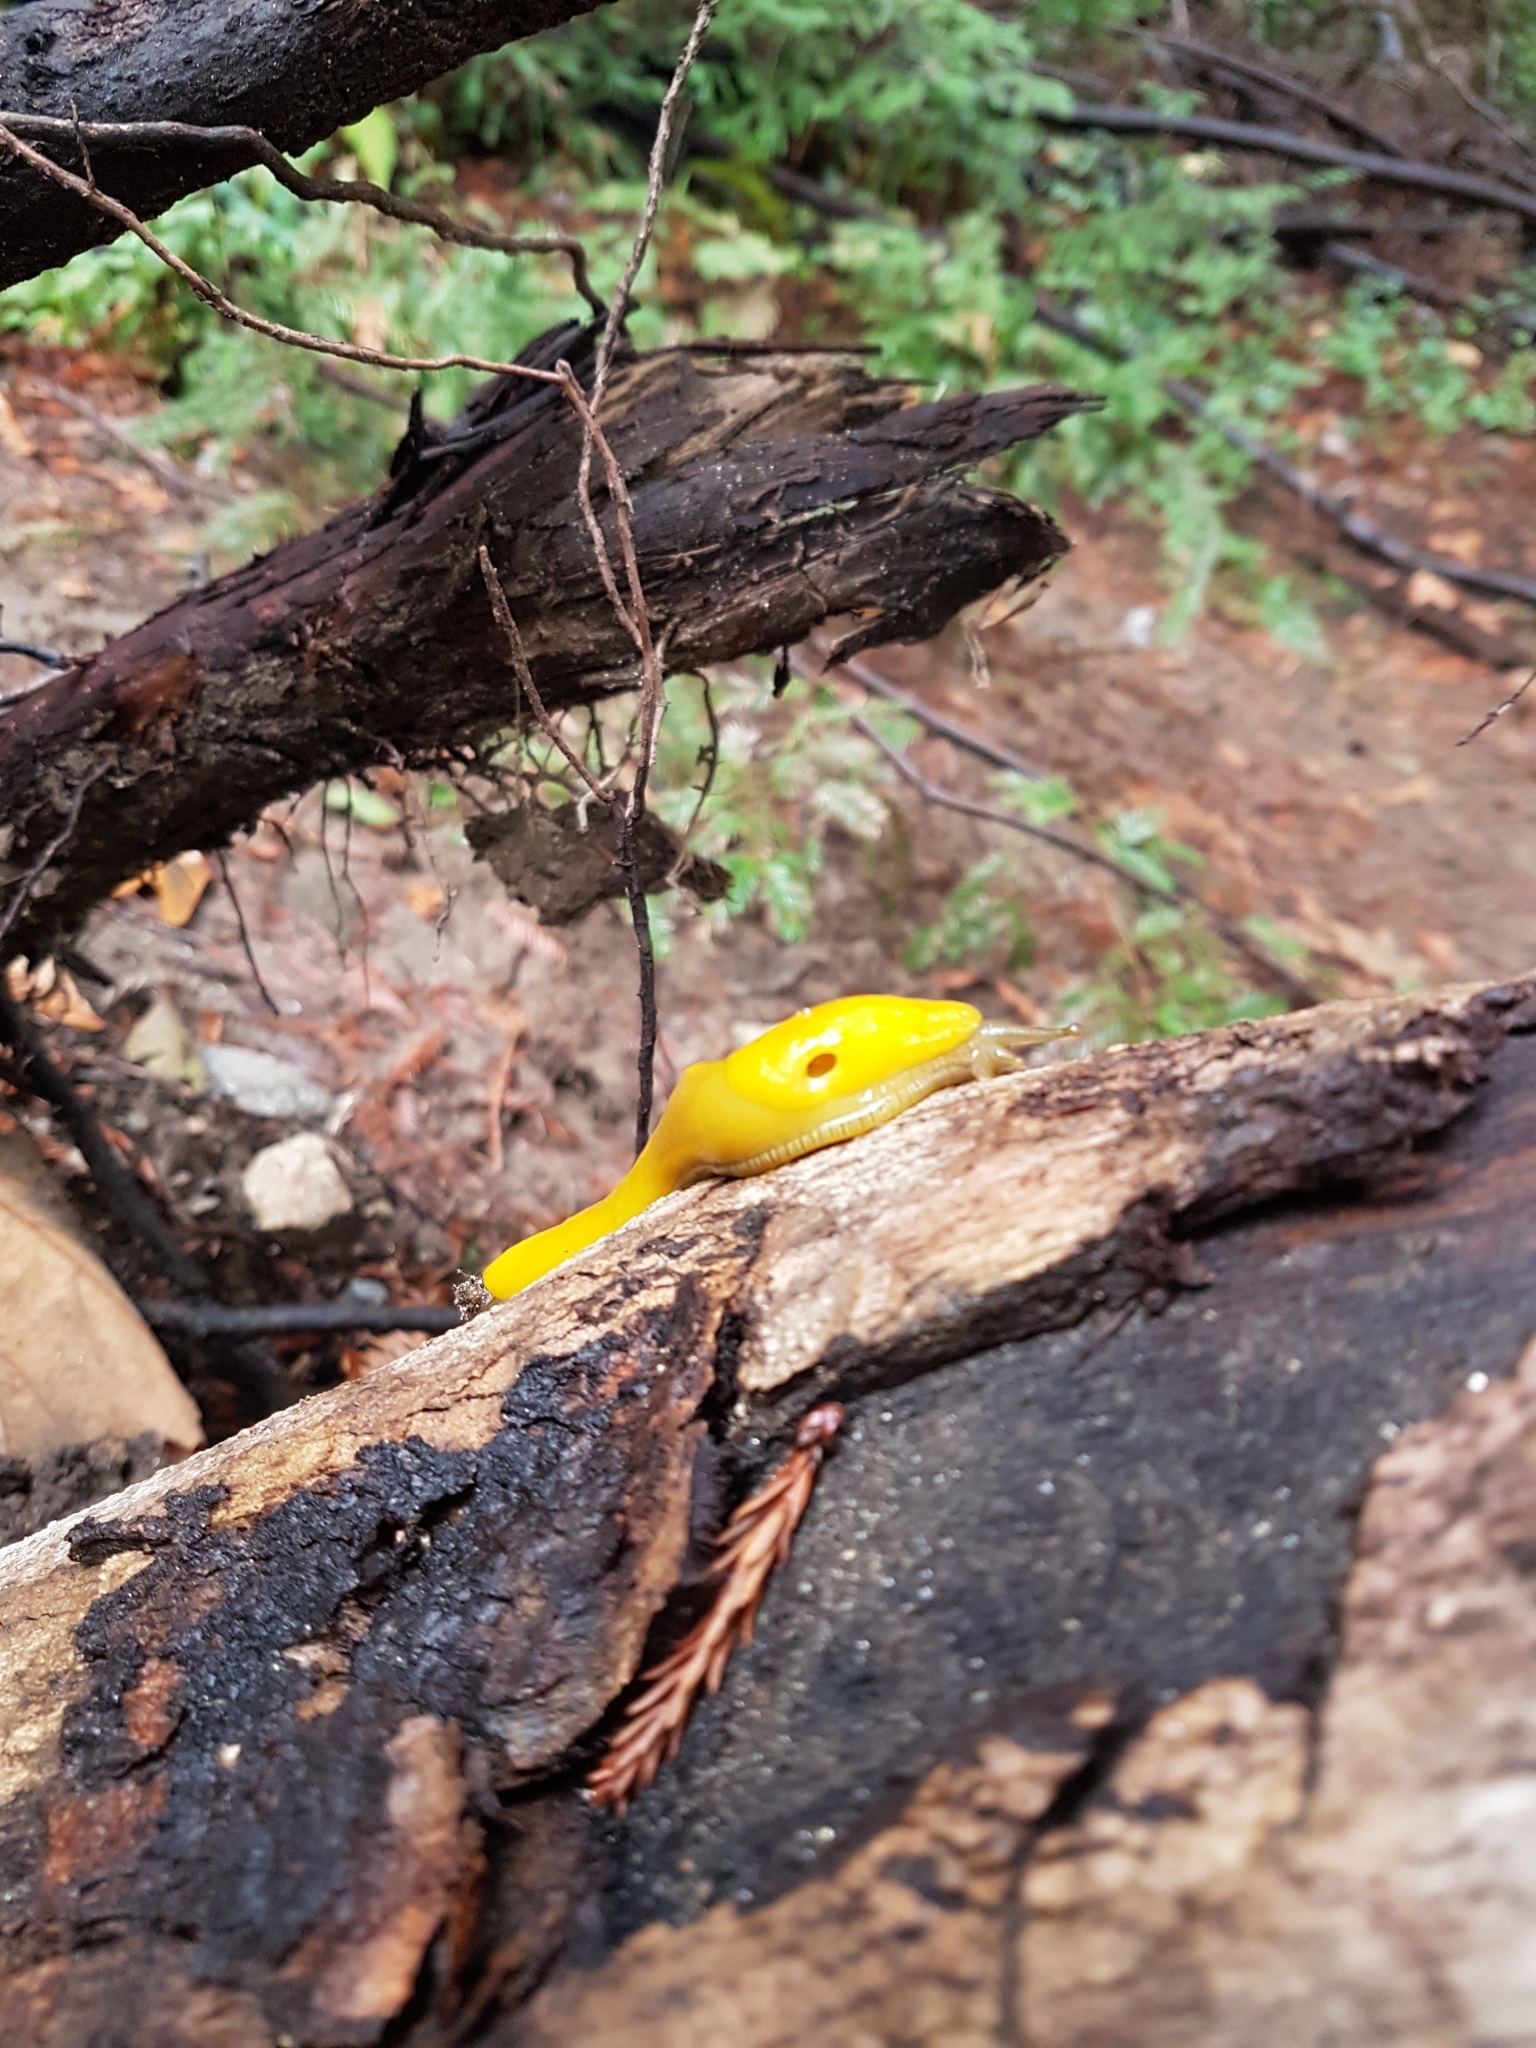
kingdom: Animalia
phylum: Mollusca
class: Gastropoda
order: Stylommatophora
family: Ariolimacidae
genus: Ariolimax
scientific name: Ariolimax stramineus
